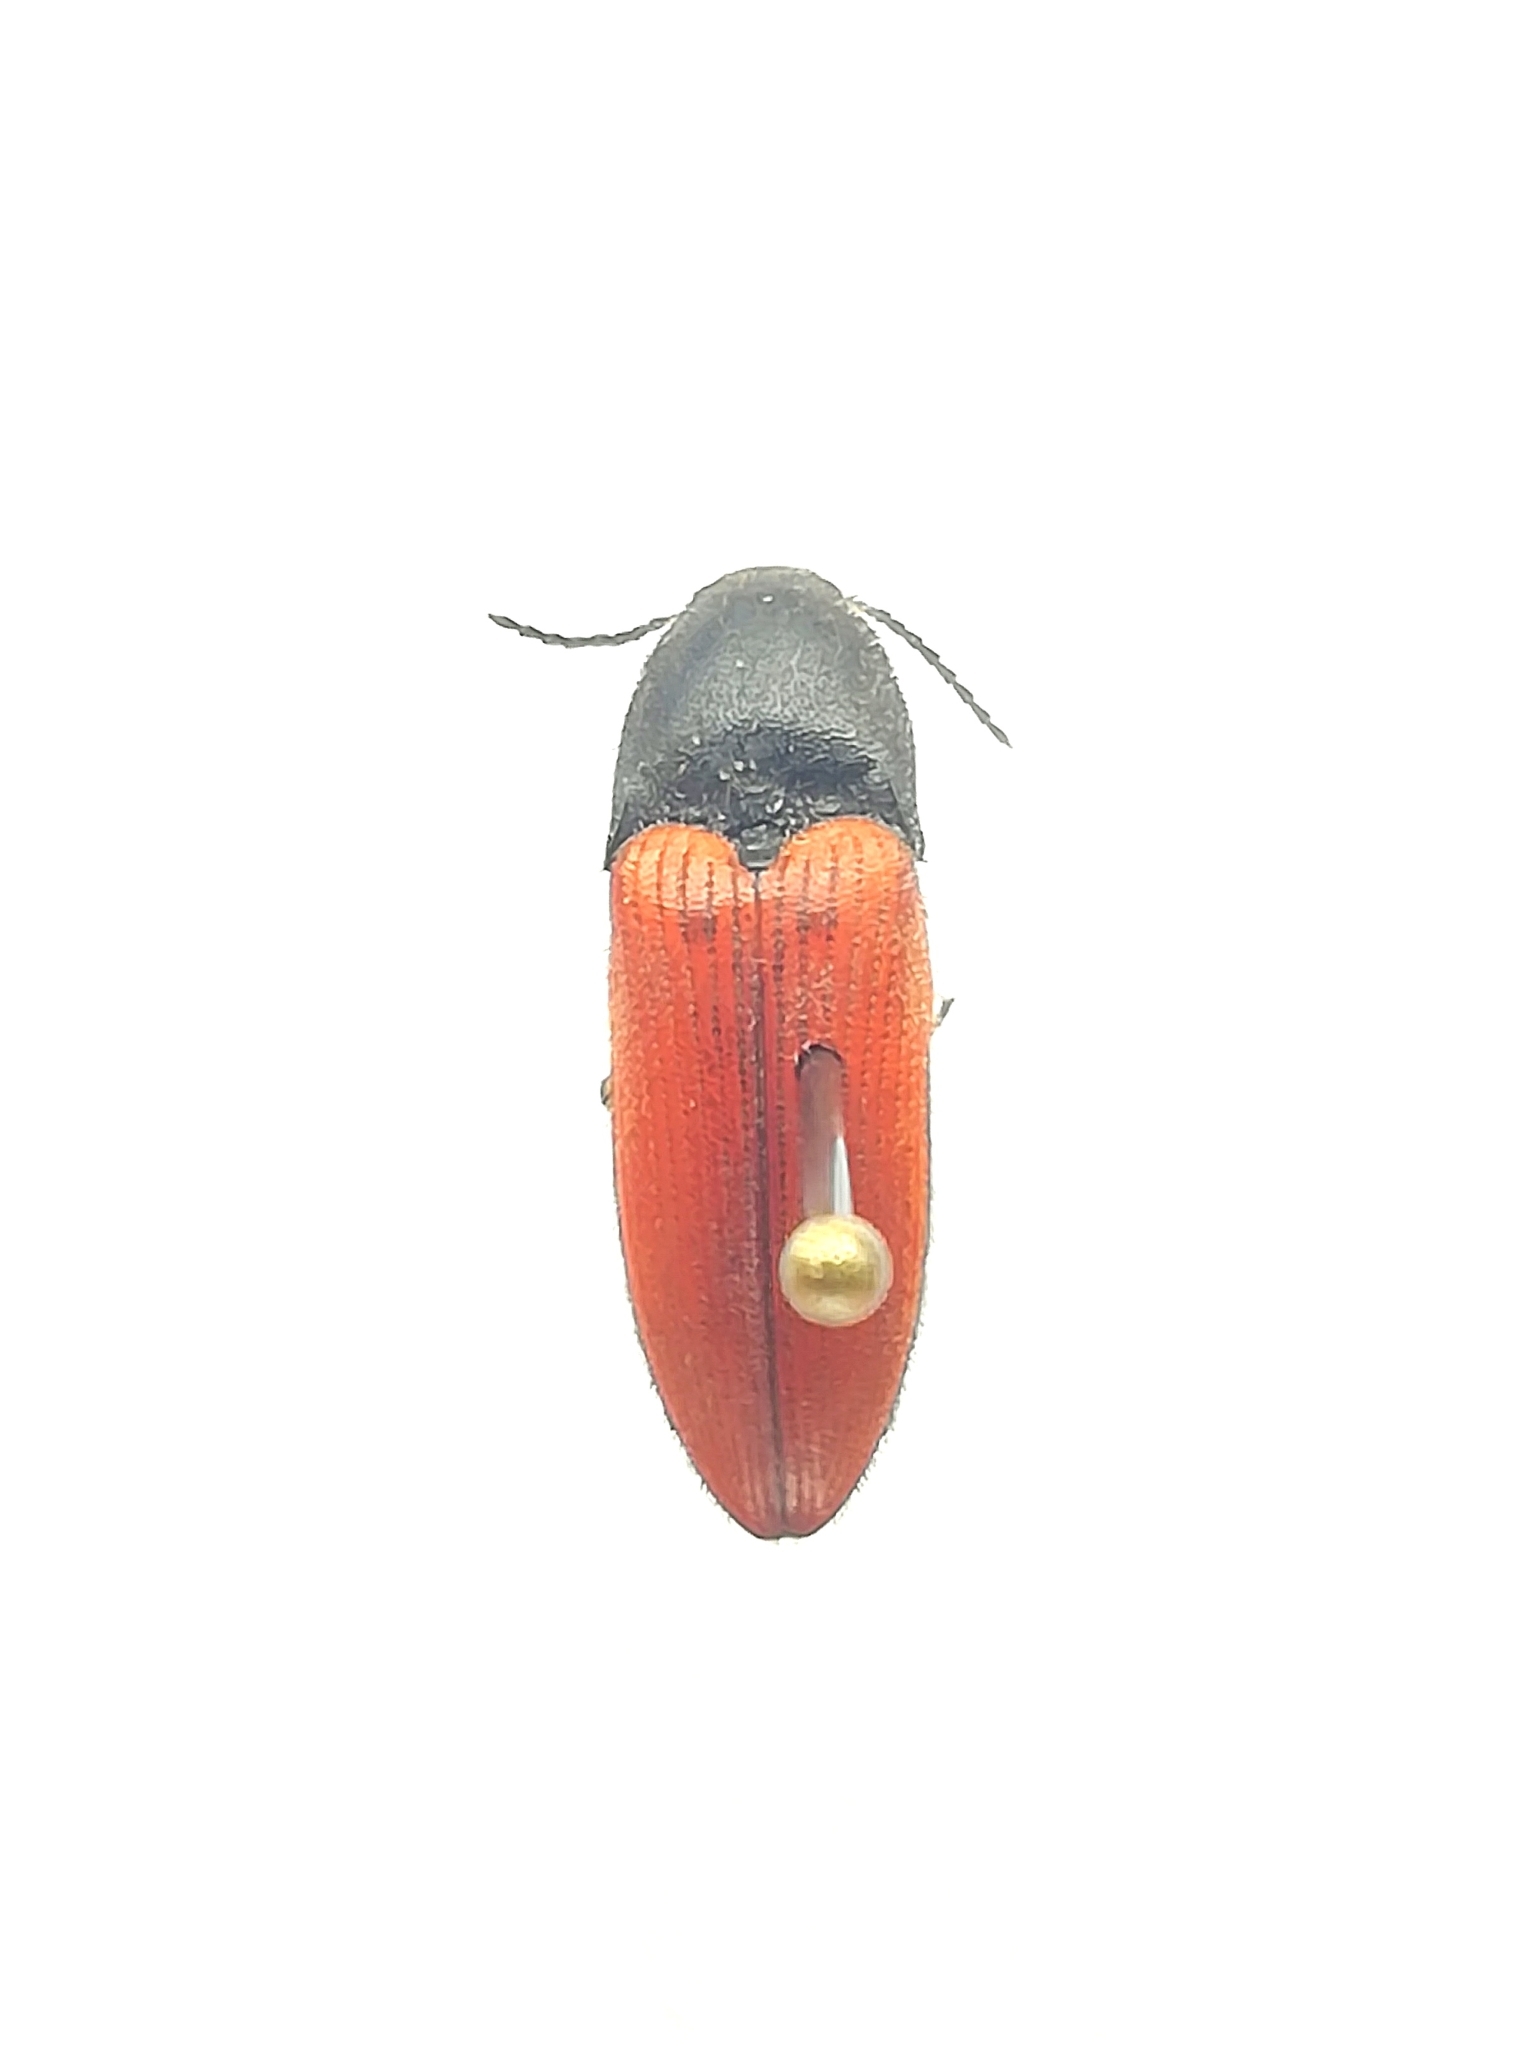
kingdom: Animalia
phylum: Arthropoda
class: Insecta
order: Coleoptera
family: Elateridae
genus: Ampedus
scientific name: Ampedus sanguineus
